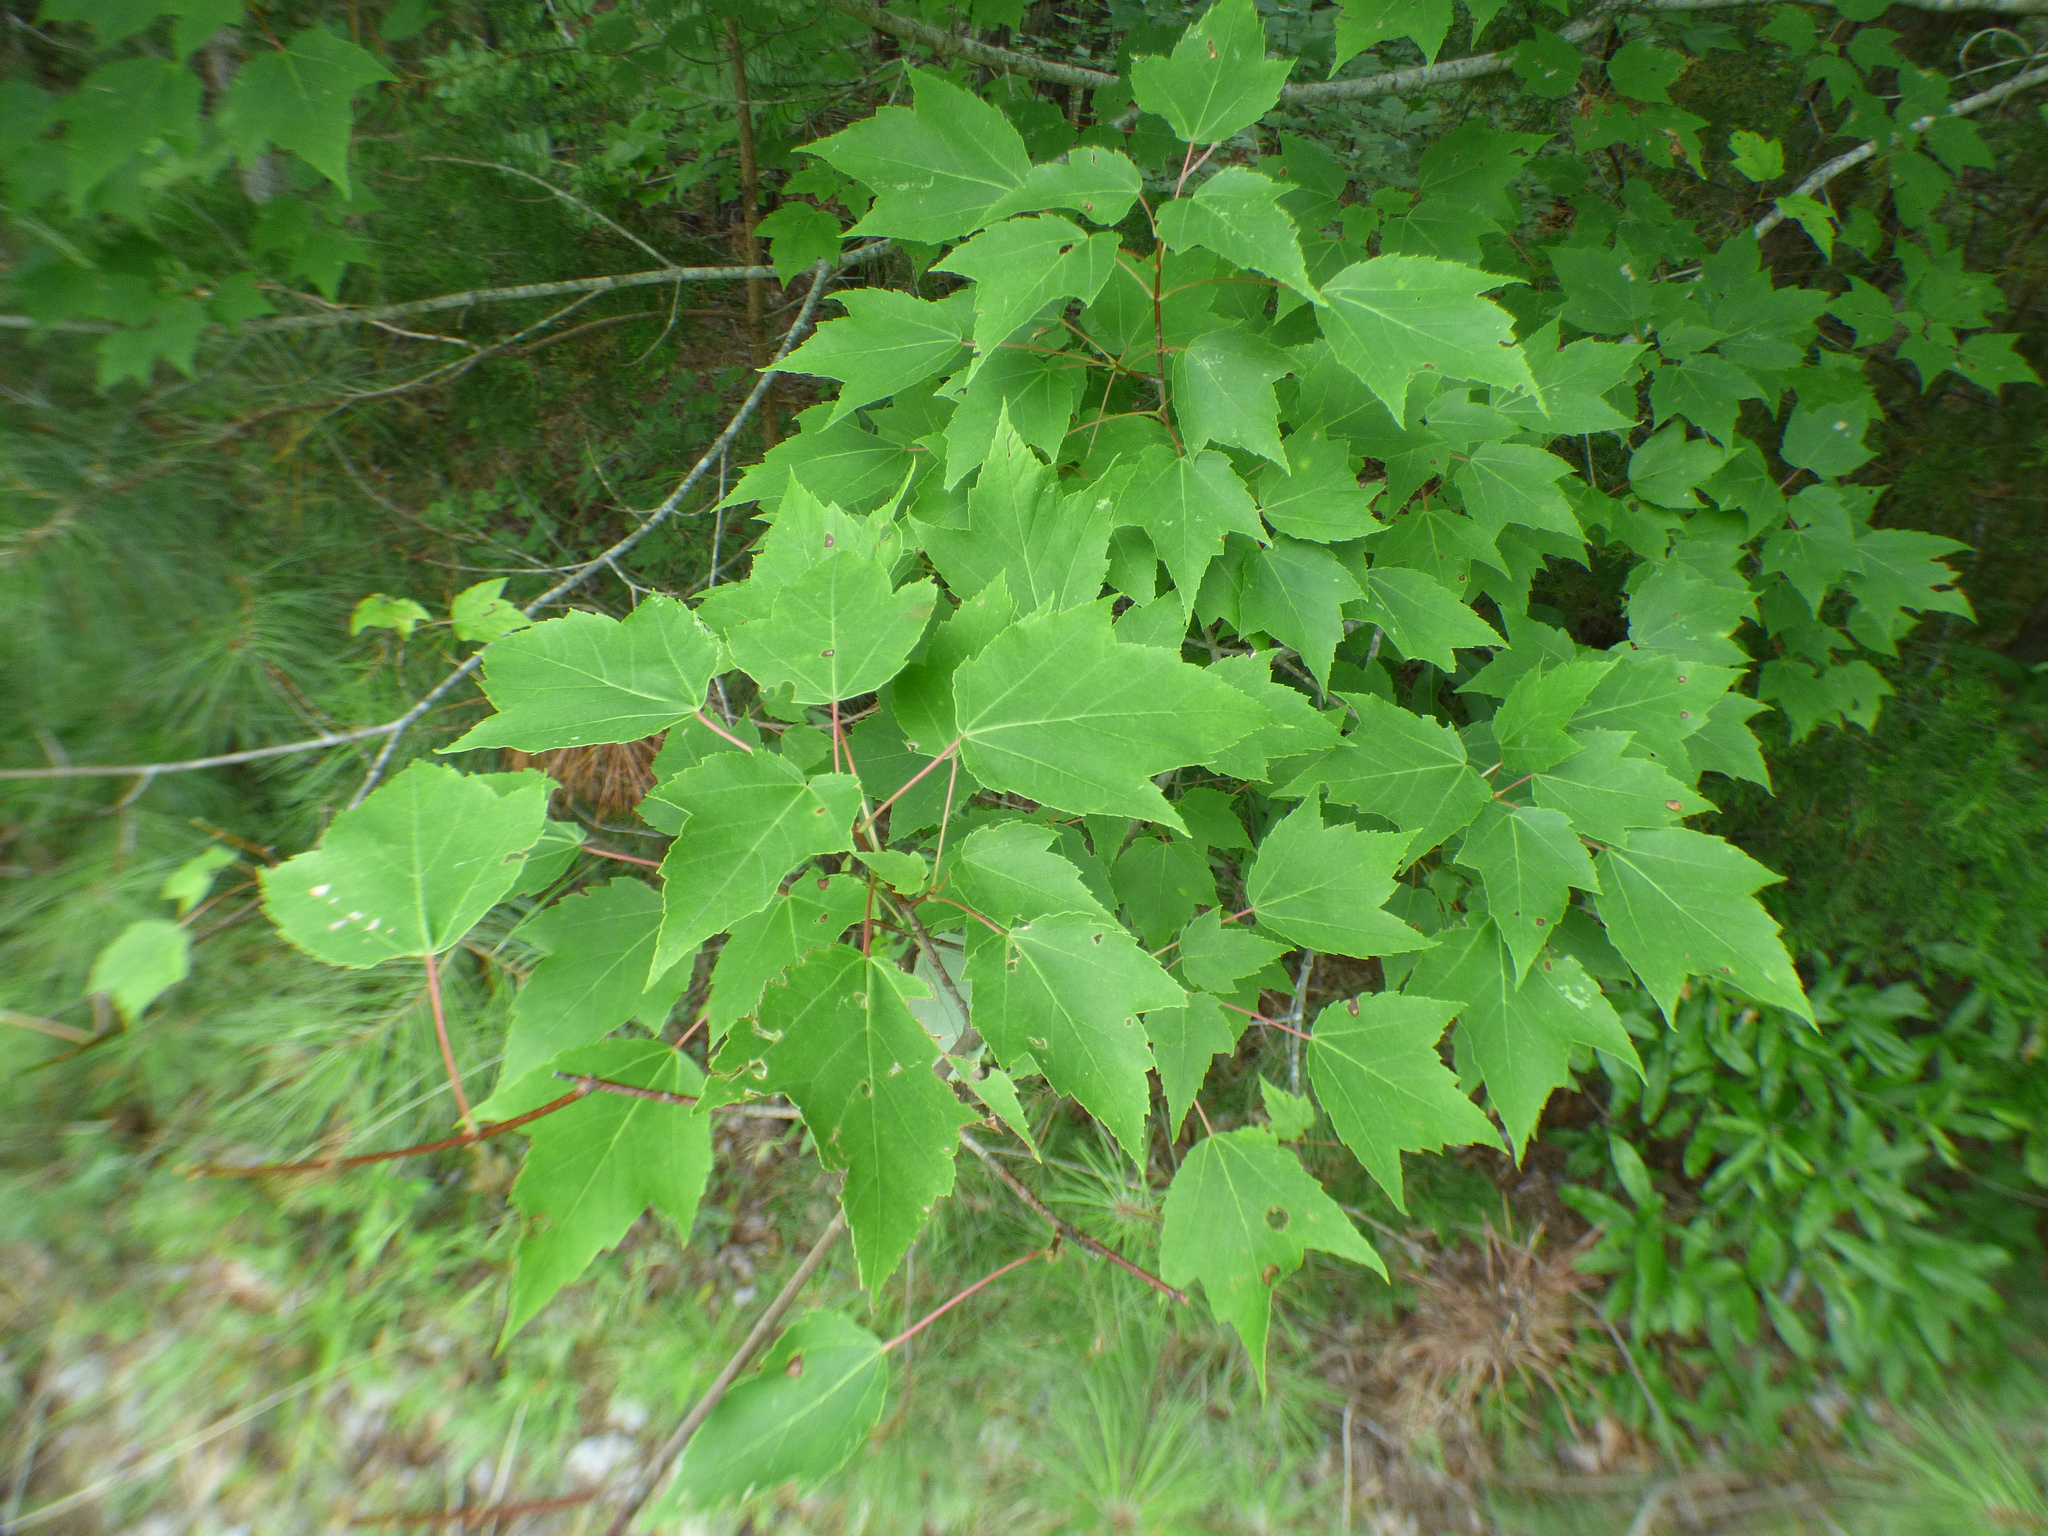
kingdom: Plantae
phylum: Tracheophyta
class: Magnoliopsida
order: Sapindales
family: Sapindaceae
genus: Acer
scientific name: Acer rubrum
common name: Red maple
